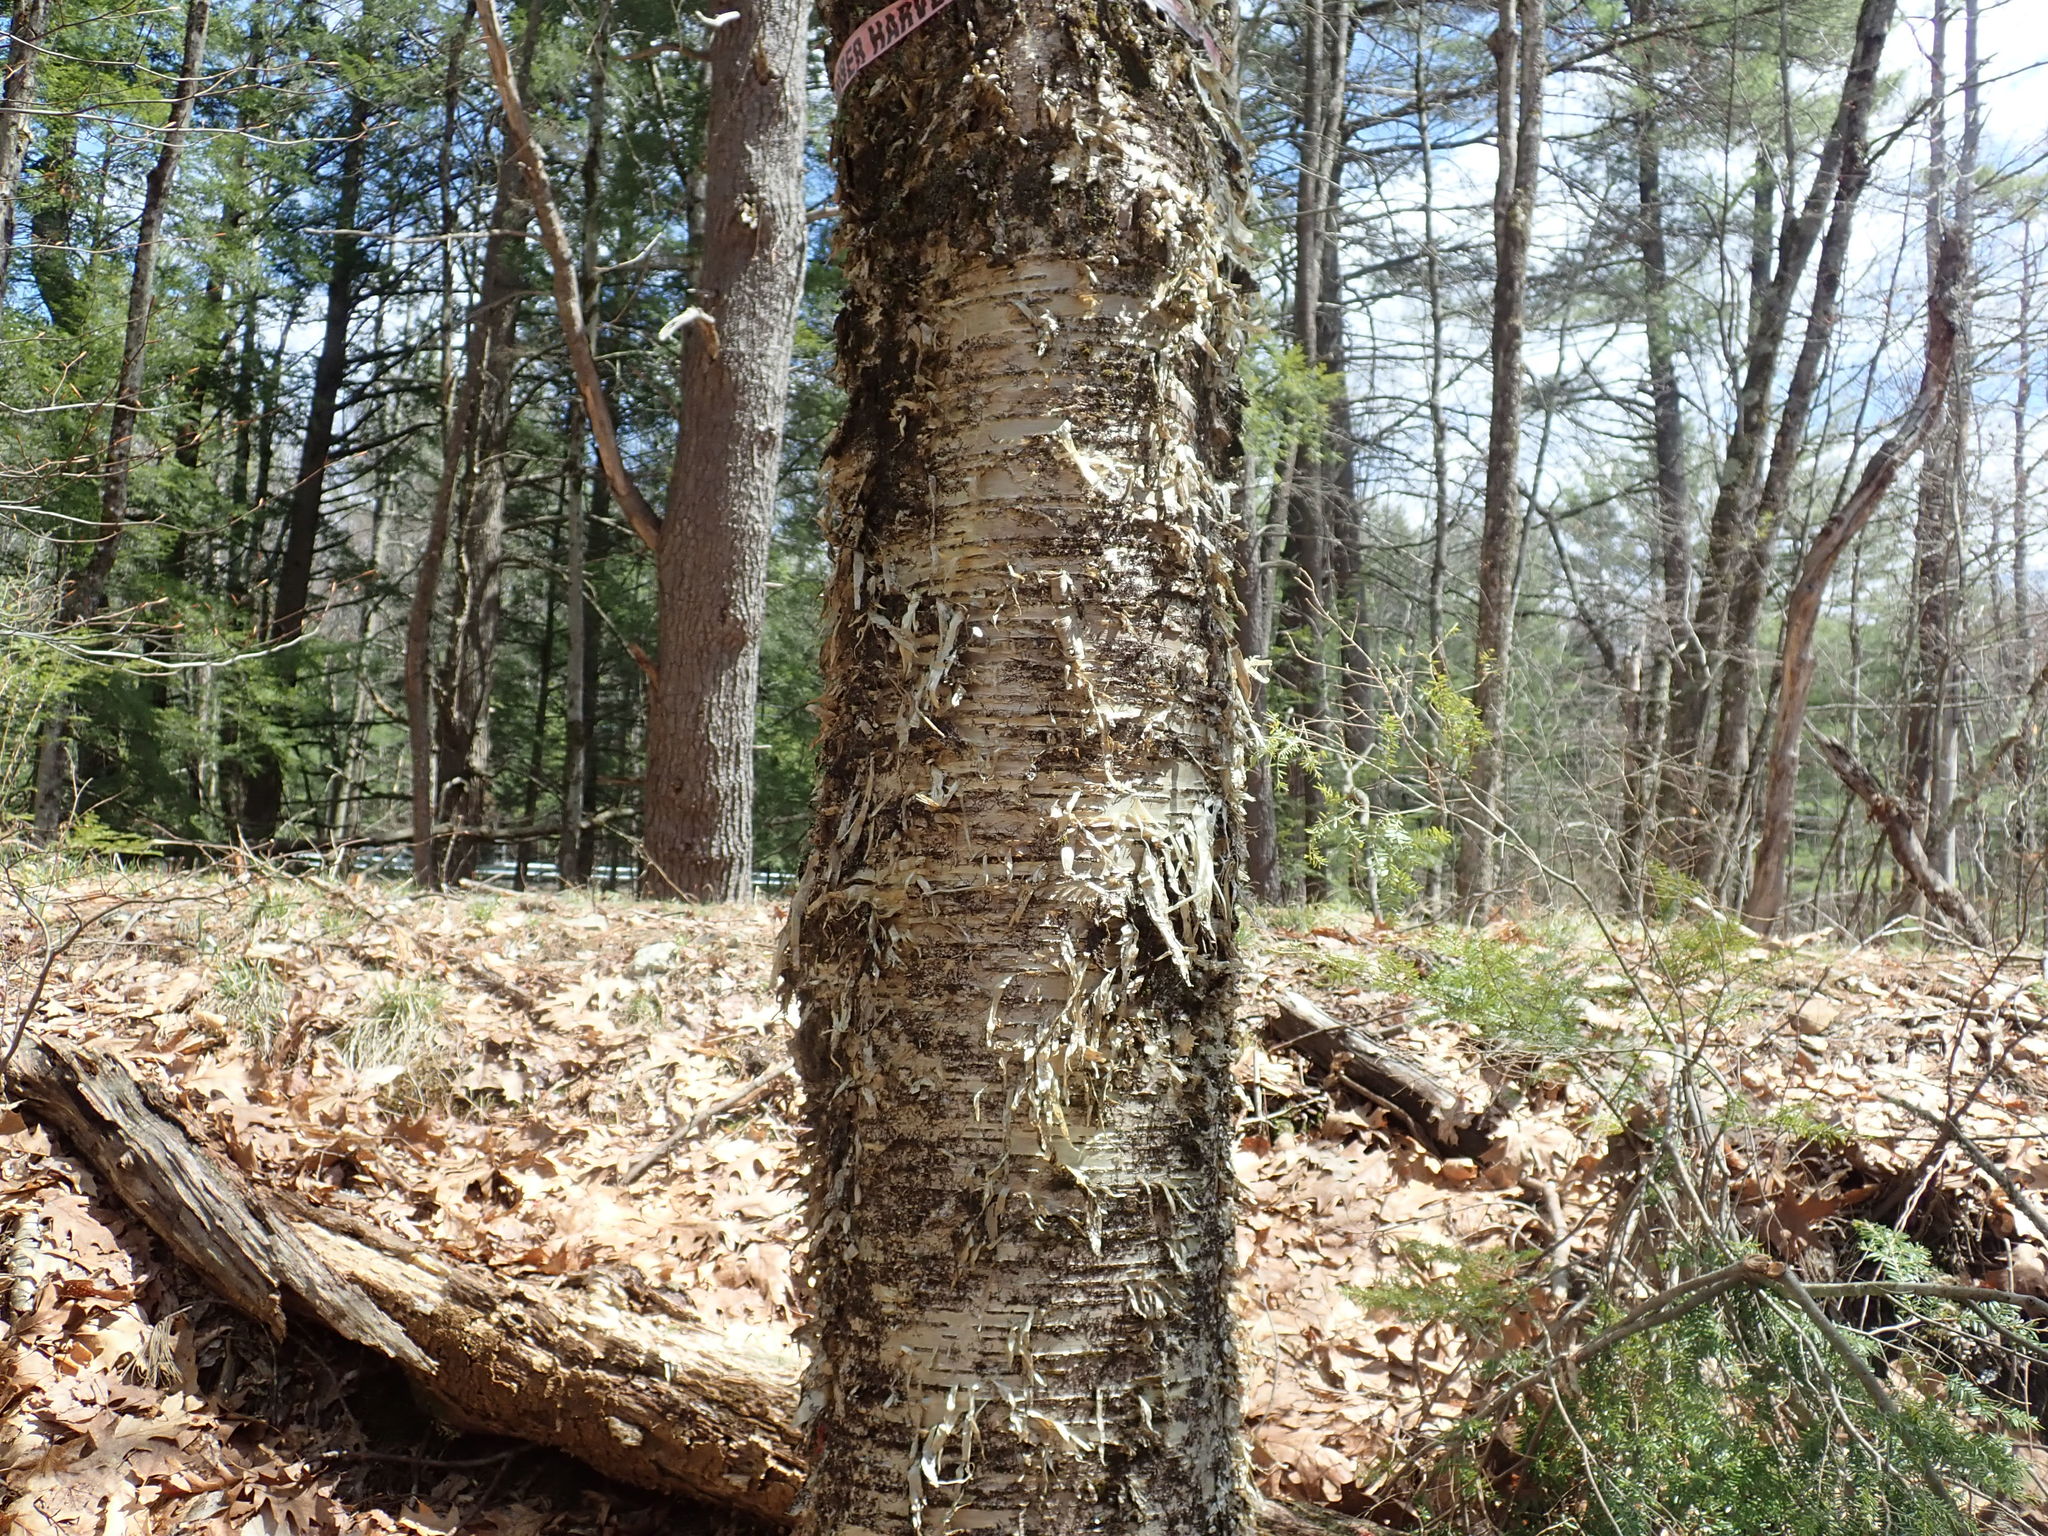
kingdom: Plantae
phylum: Tracheophyta
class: Magnoliopsida
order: Fagales
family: Betulaceae
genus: Betula
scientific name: Betula alleghaniensis
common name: Yellow birch
